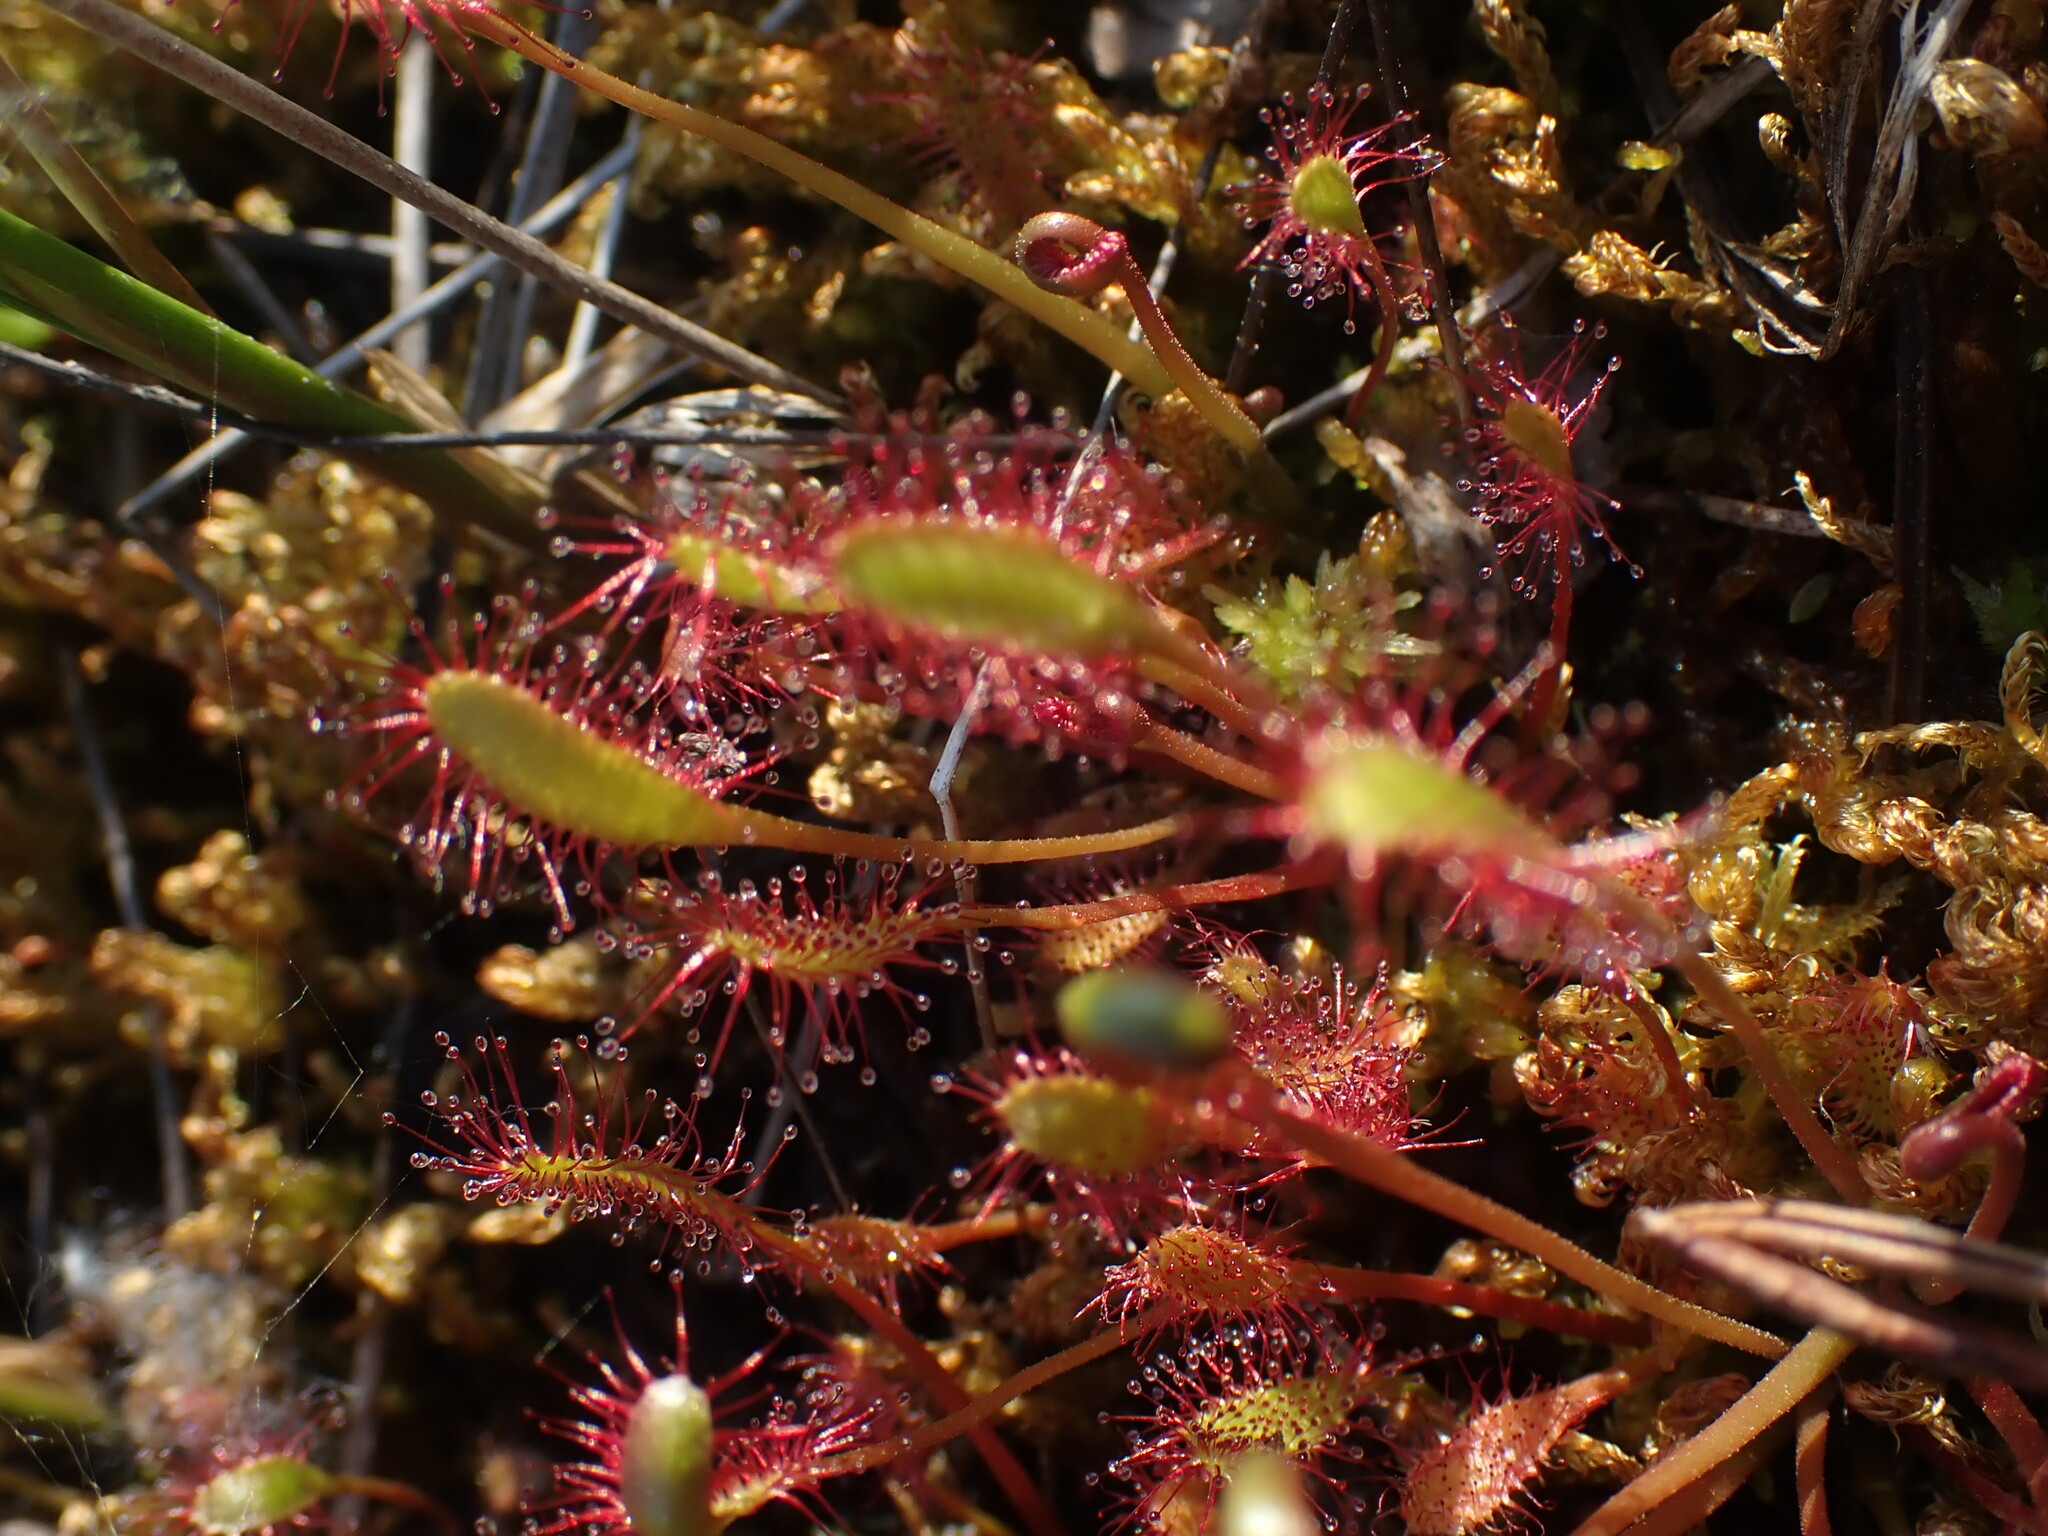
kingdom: Plantae
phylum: Tracheophyta
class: Magnoliopsida
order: Caryophyllales
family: Droseraceae
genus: Drosera
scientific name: Drosera anglica
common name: Great sundew
